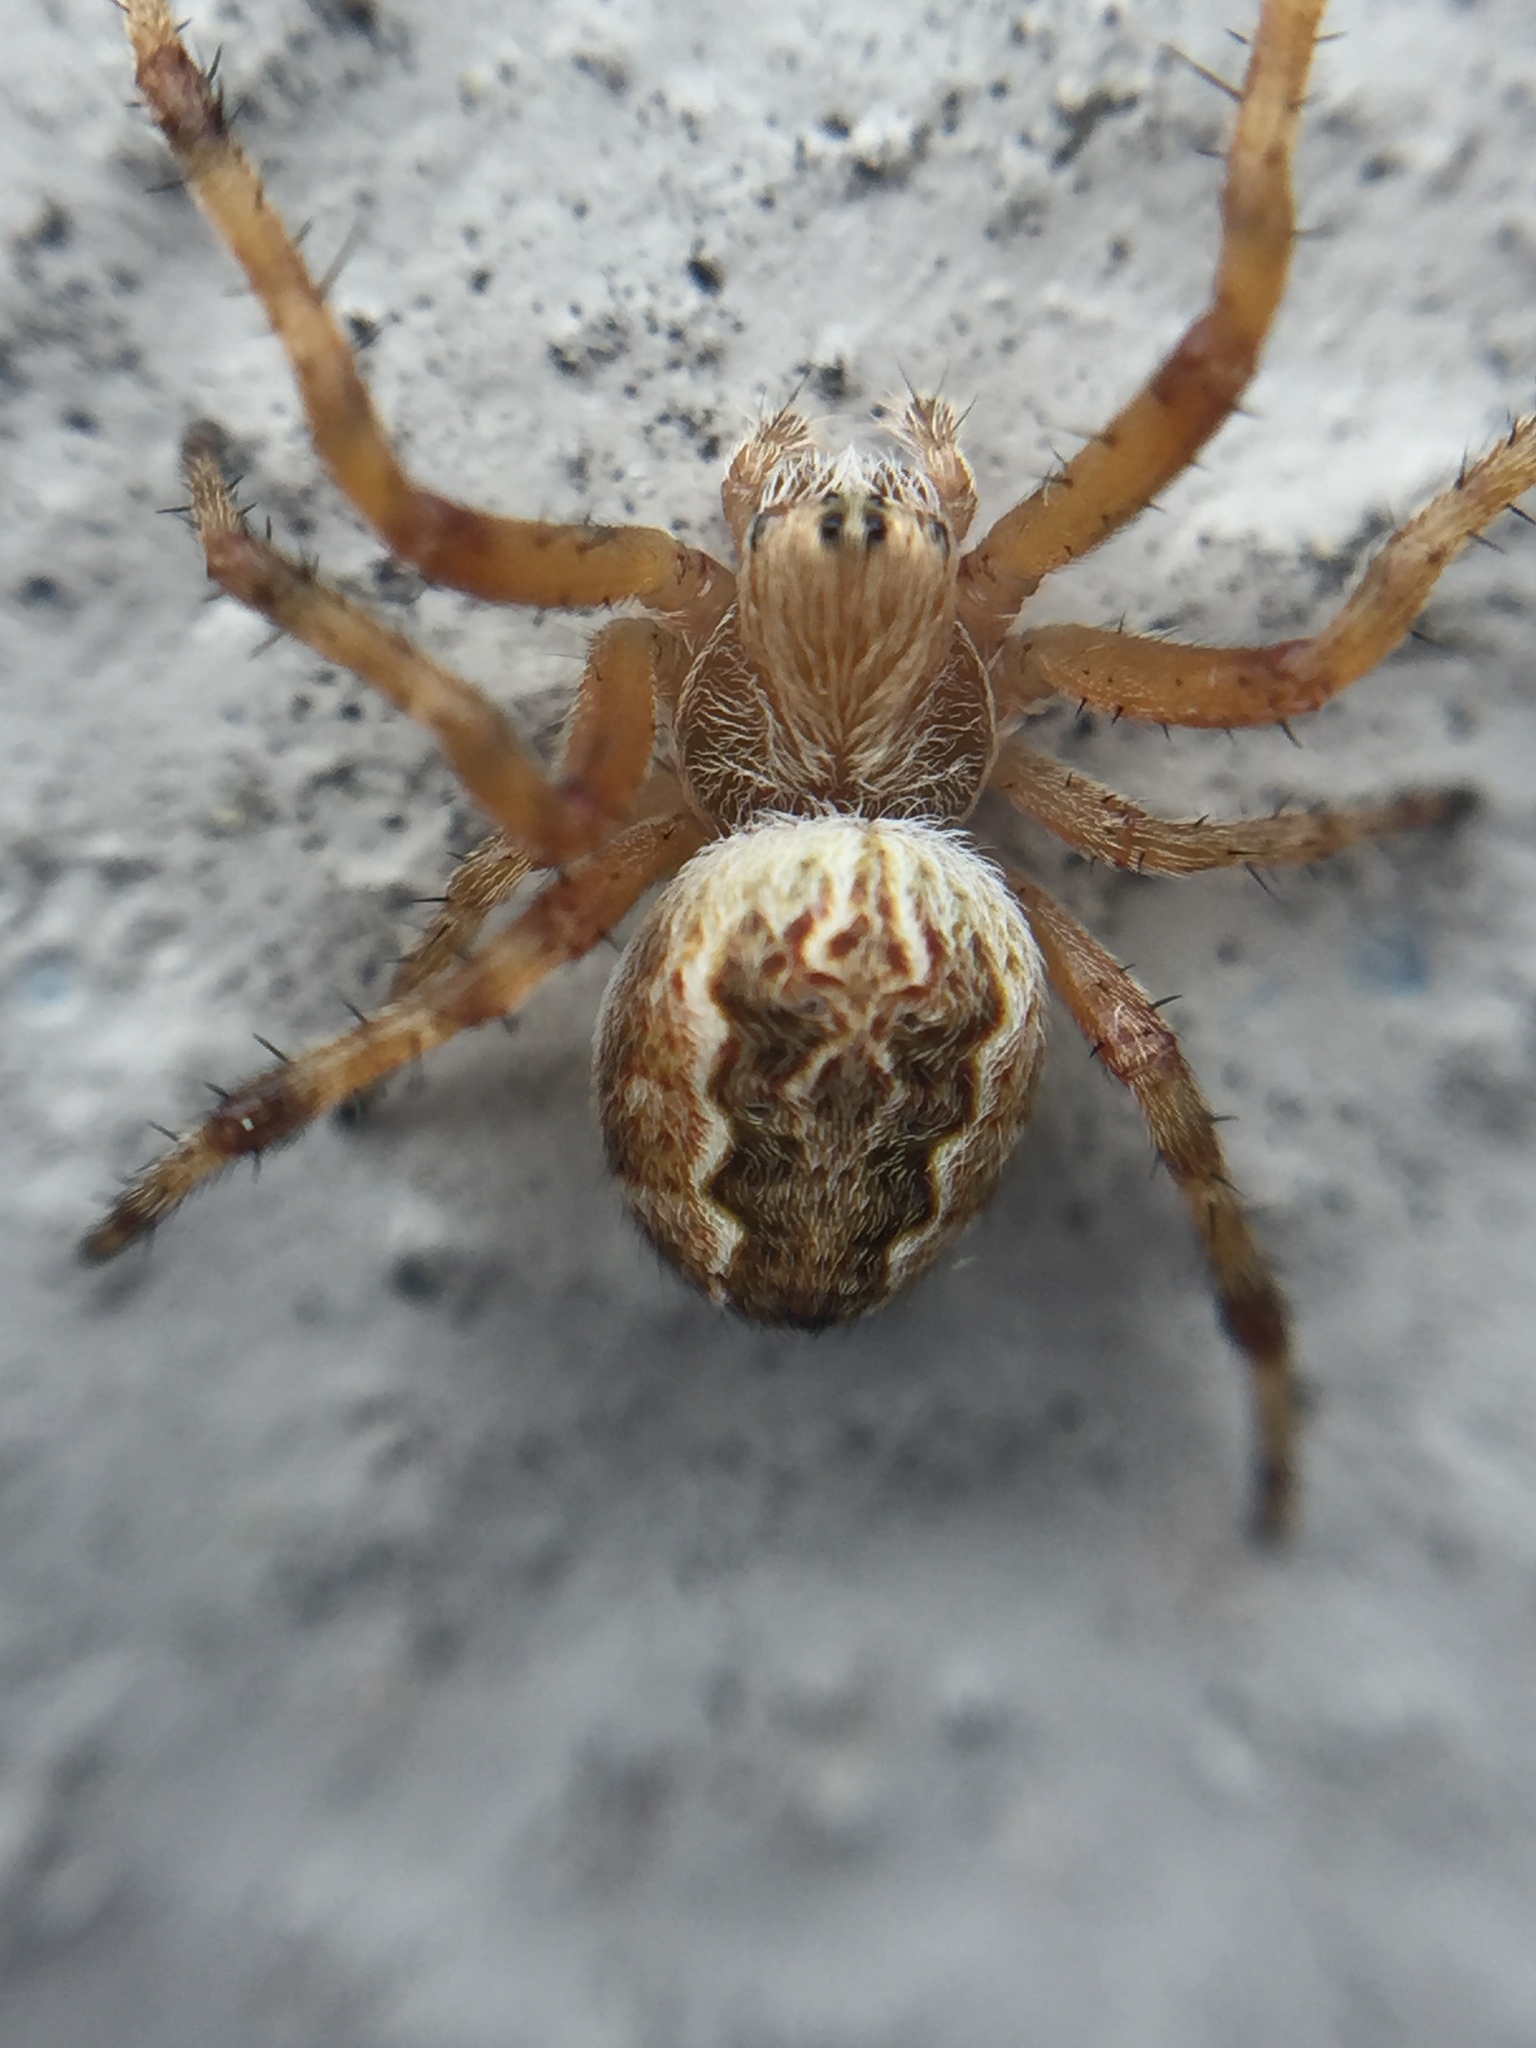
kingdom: Animalia
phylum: Arthropoda
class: Arachnida
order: Araneae
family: Araneidae
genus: Salsa
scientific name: Salsa fuliginata
